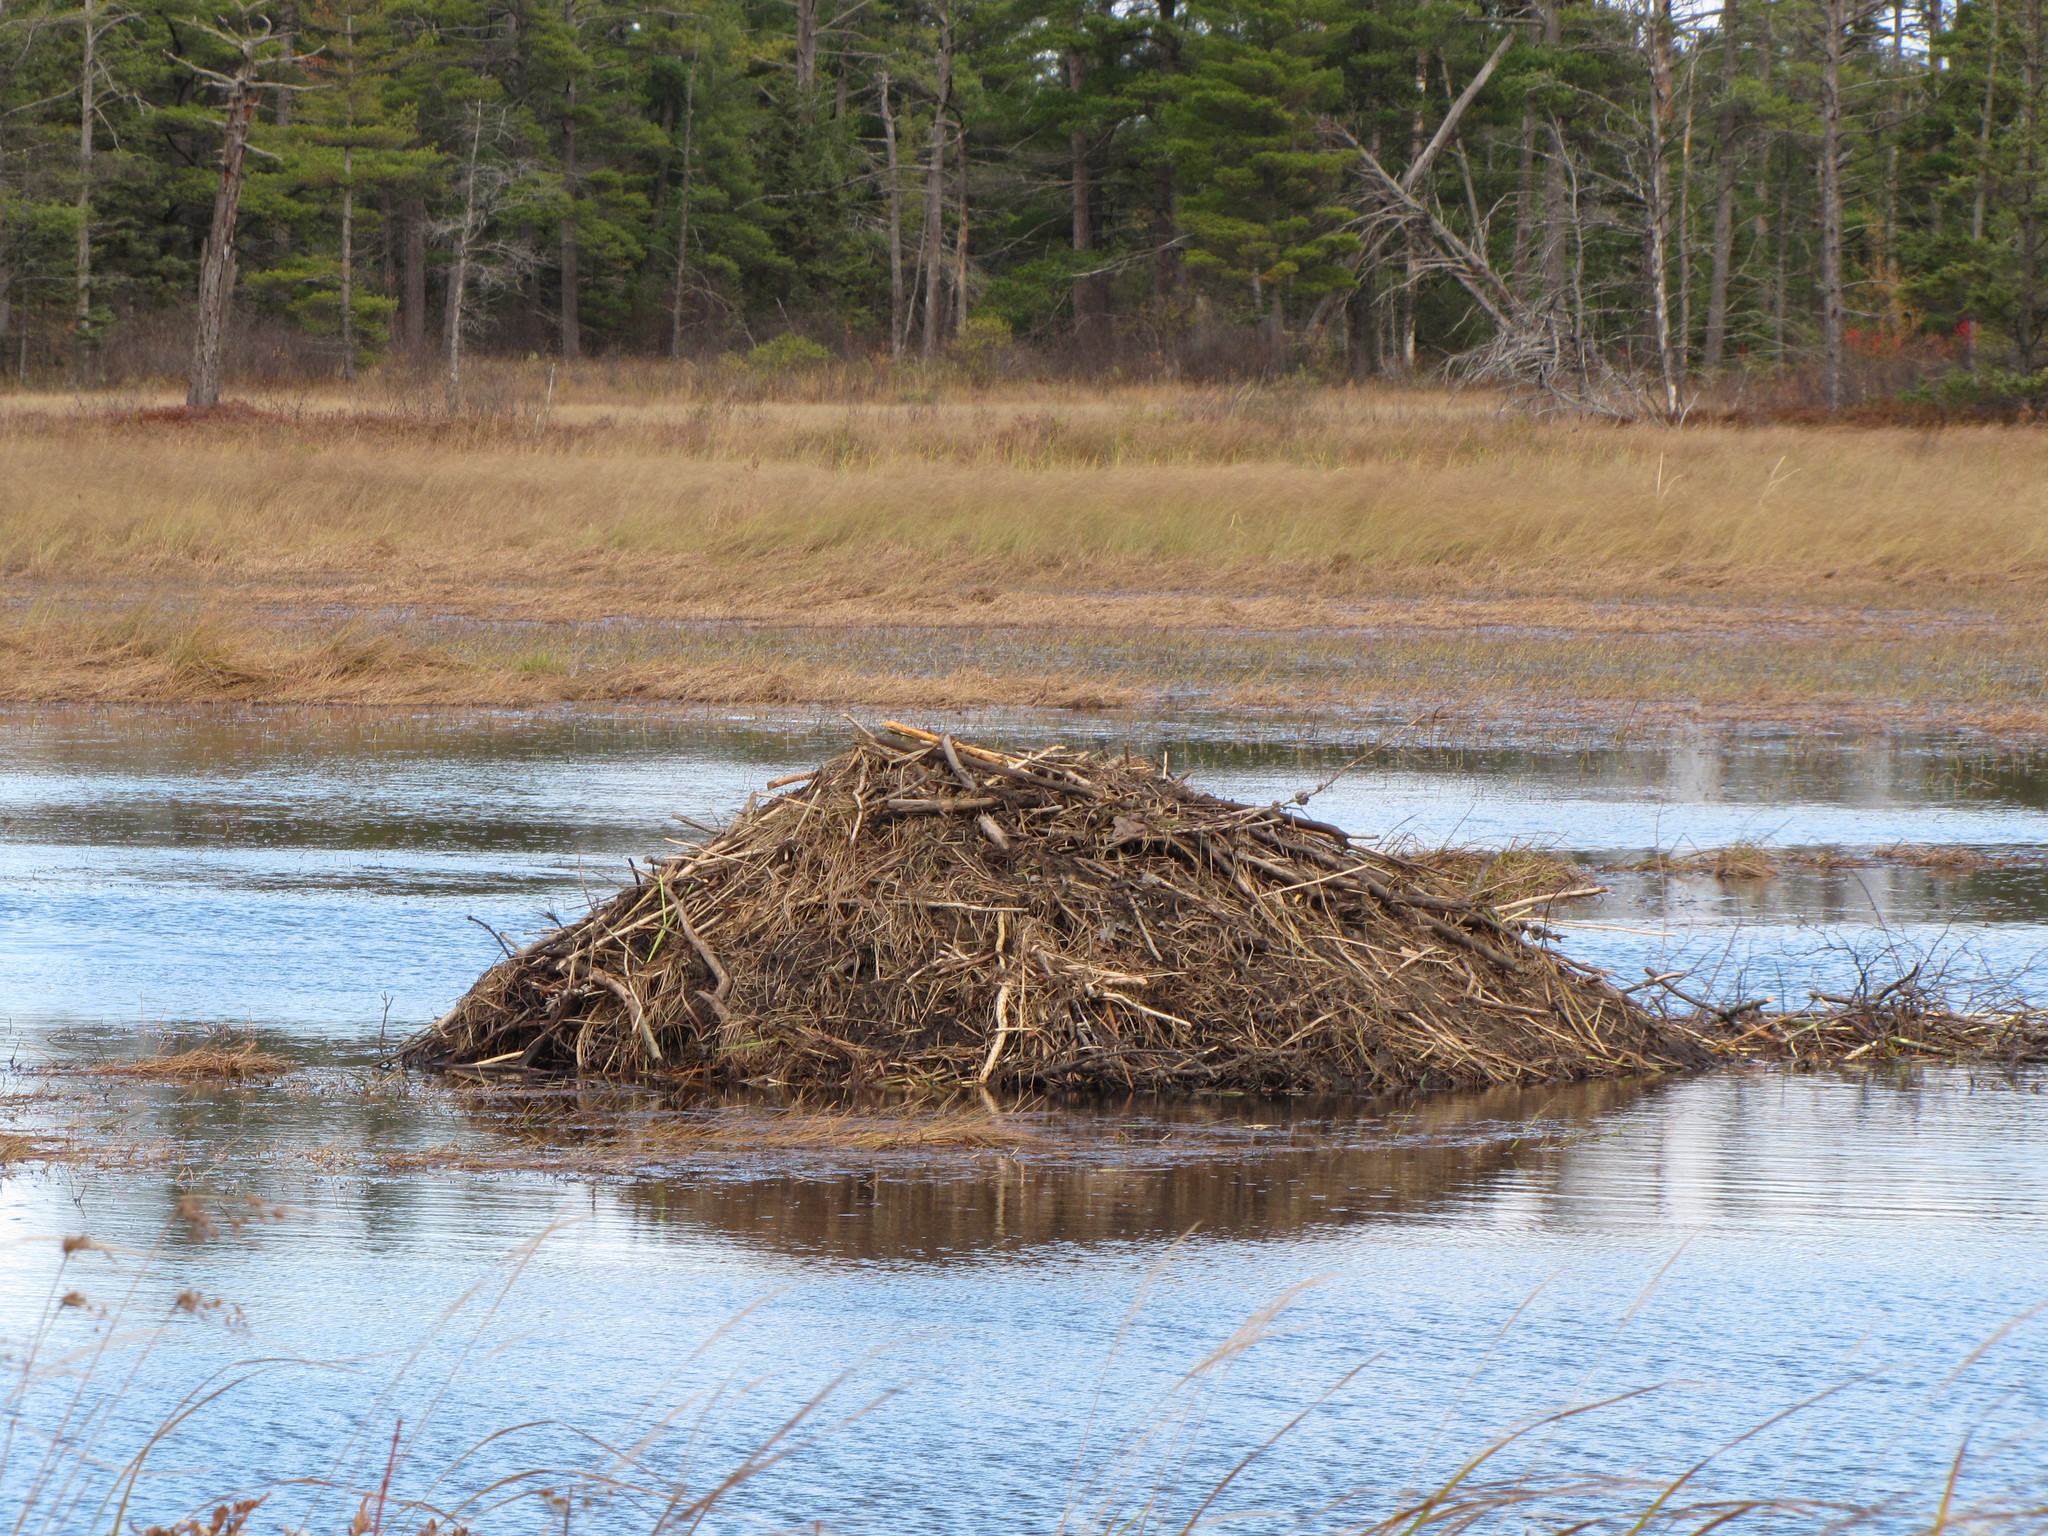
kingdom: Animalia
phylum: Chordata
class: Mammalia
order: Rodentia
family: Castoridae
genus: Castor
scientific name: Castor canadensis
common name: American beaver
